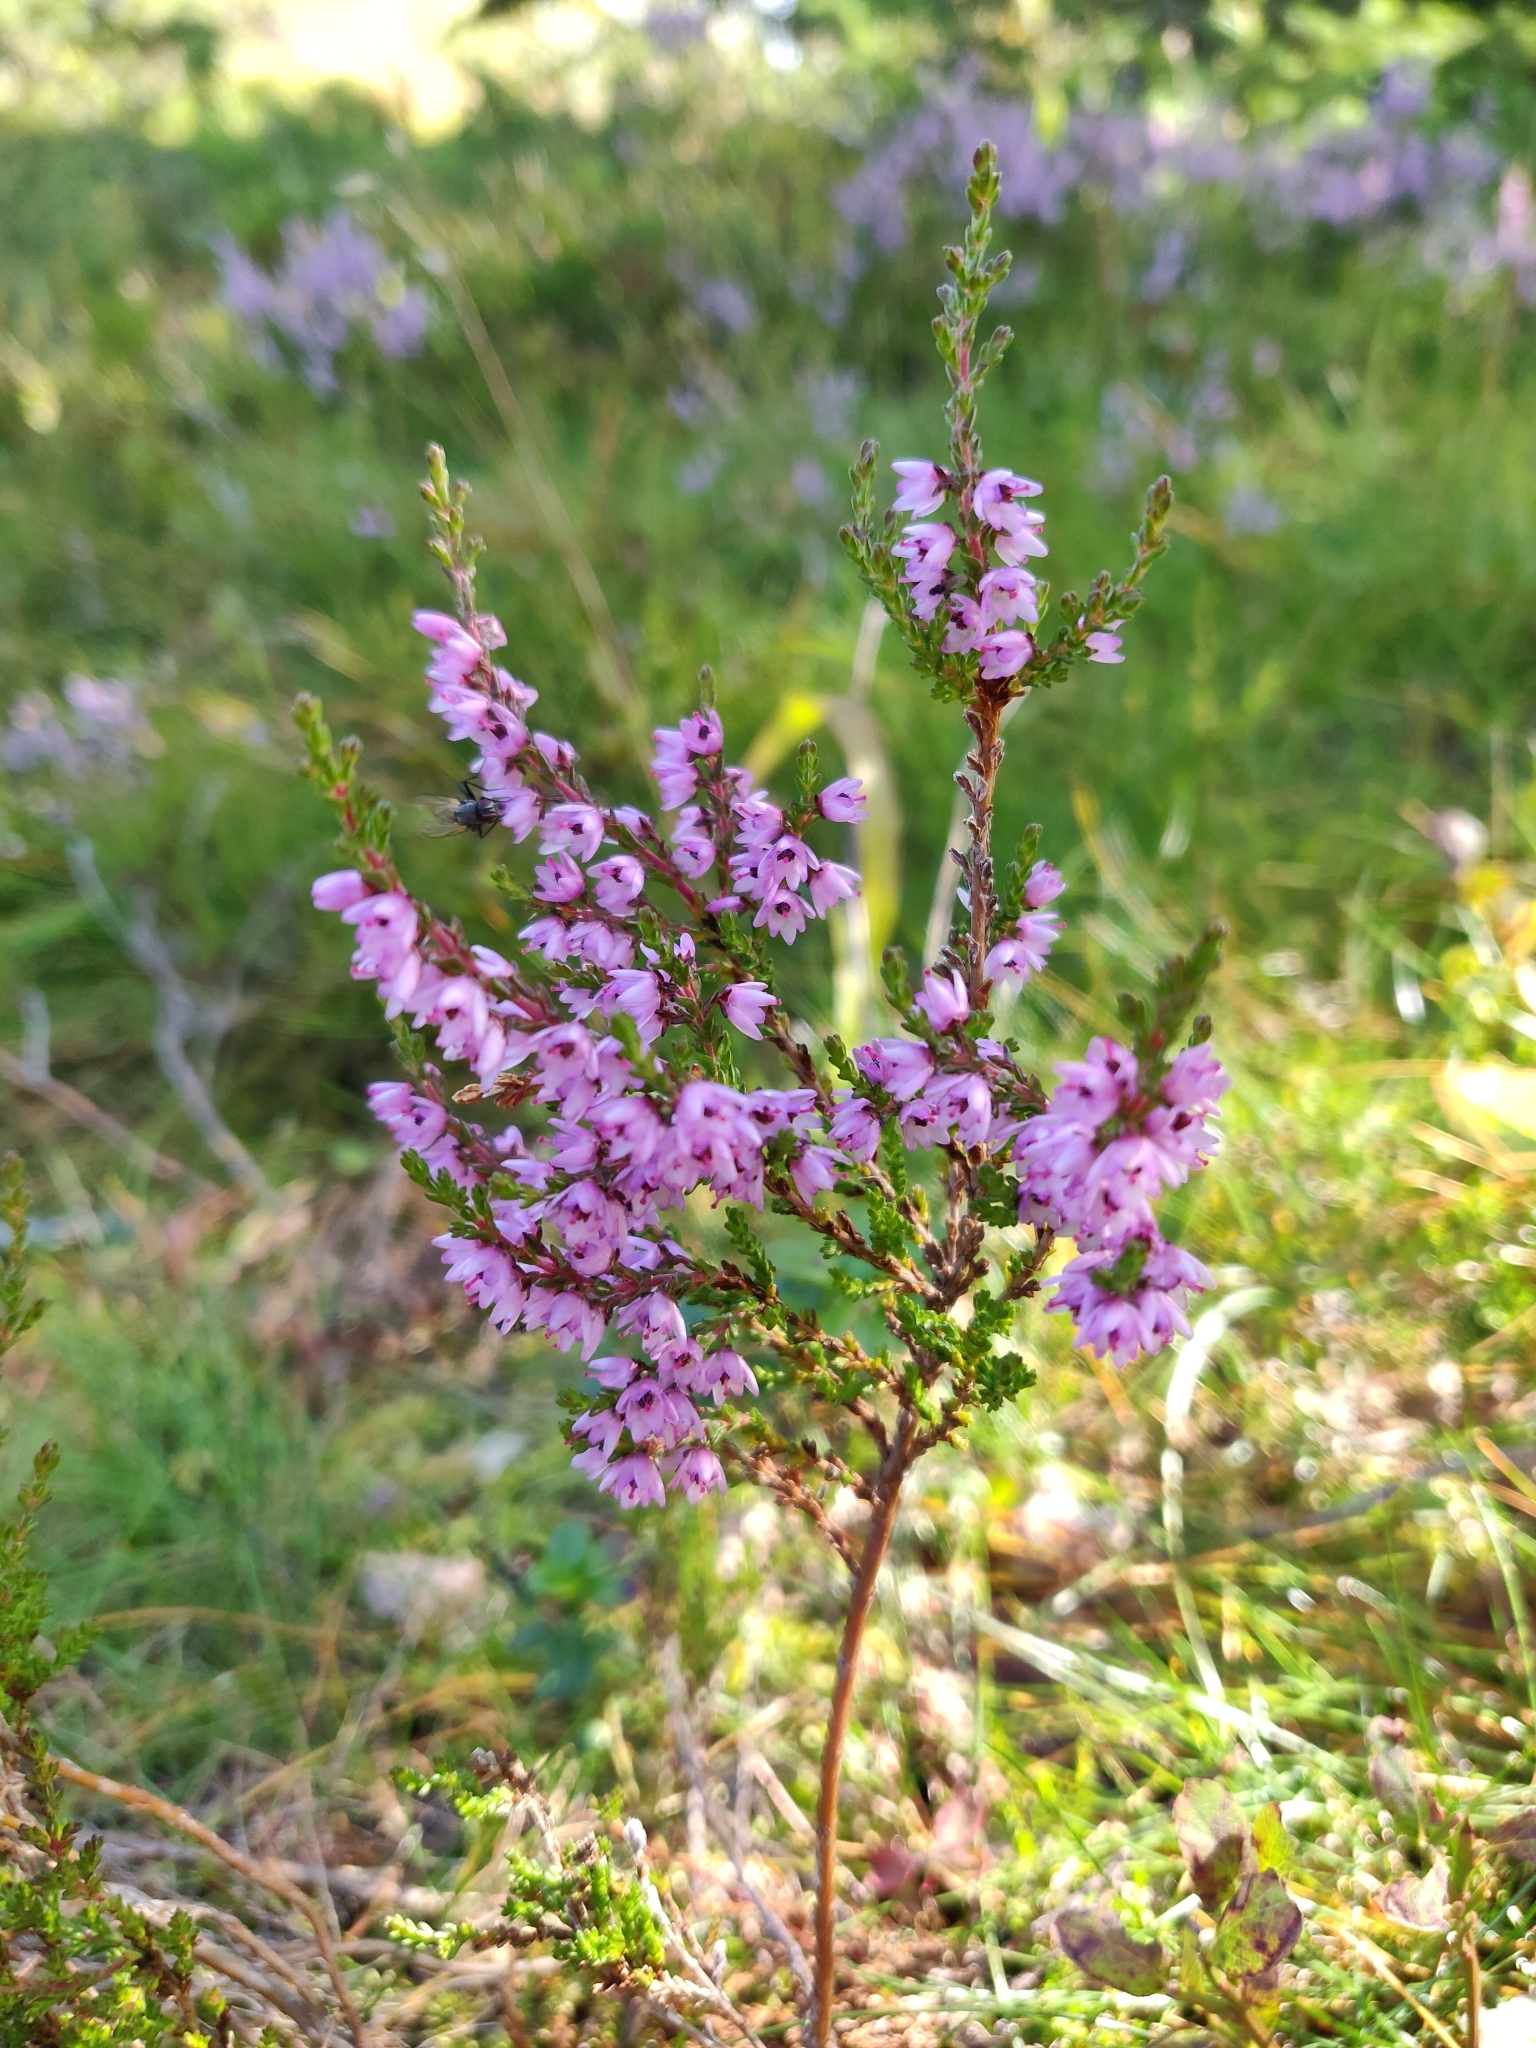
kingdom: Plantae
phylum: Tracheophyta
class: Magnoliopsida
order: Ericales
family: Ericaceae
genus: Calluna
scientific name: Calluna vulgaris
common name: Heather
